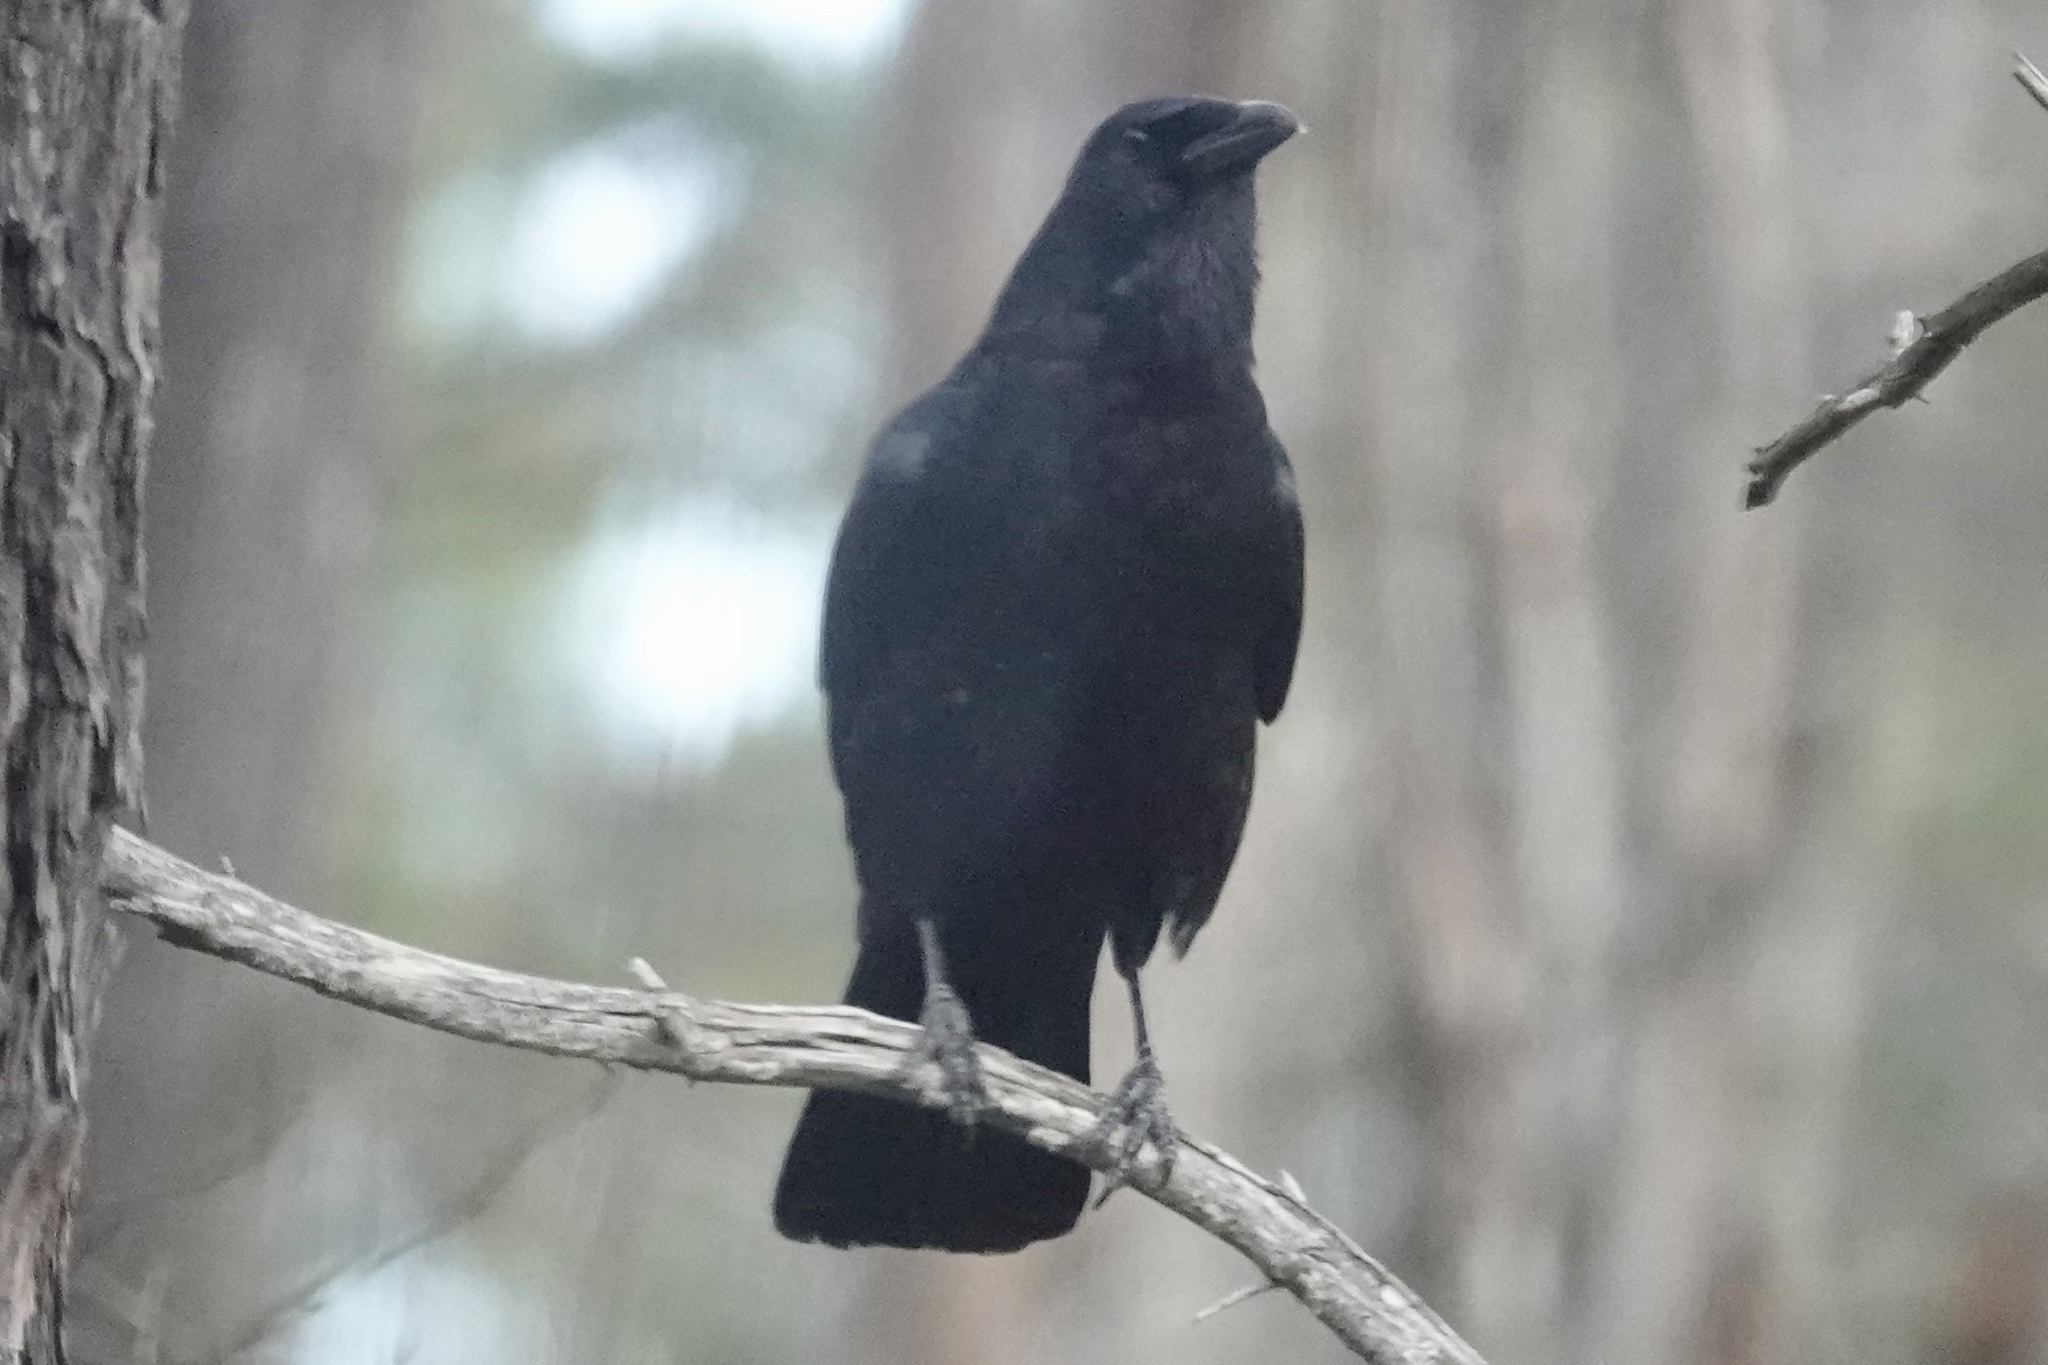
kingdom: Animalia
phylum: Chordata
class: Aves
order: Passeriformes
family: Corvidae
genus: Corvus
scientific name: Corvus brachyrhynchos
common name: American crow
